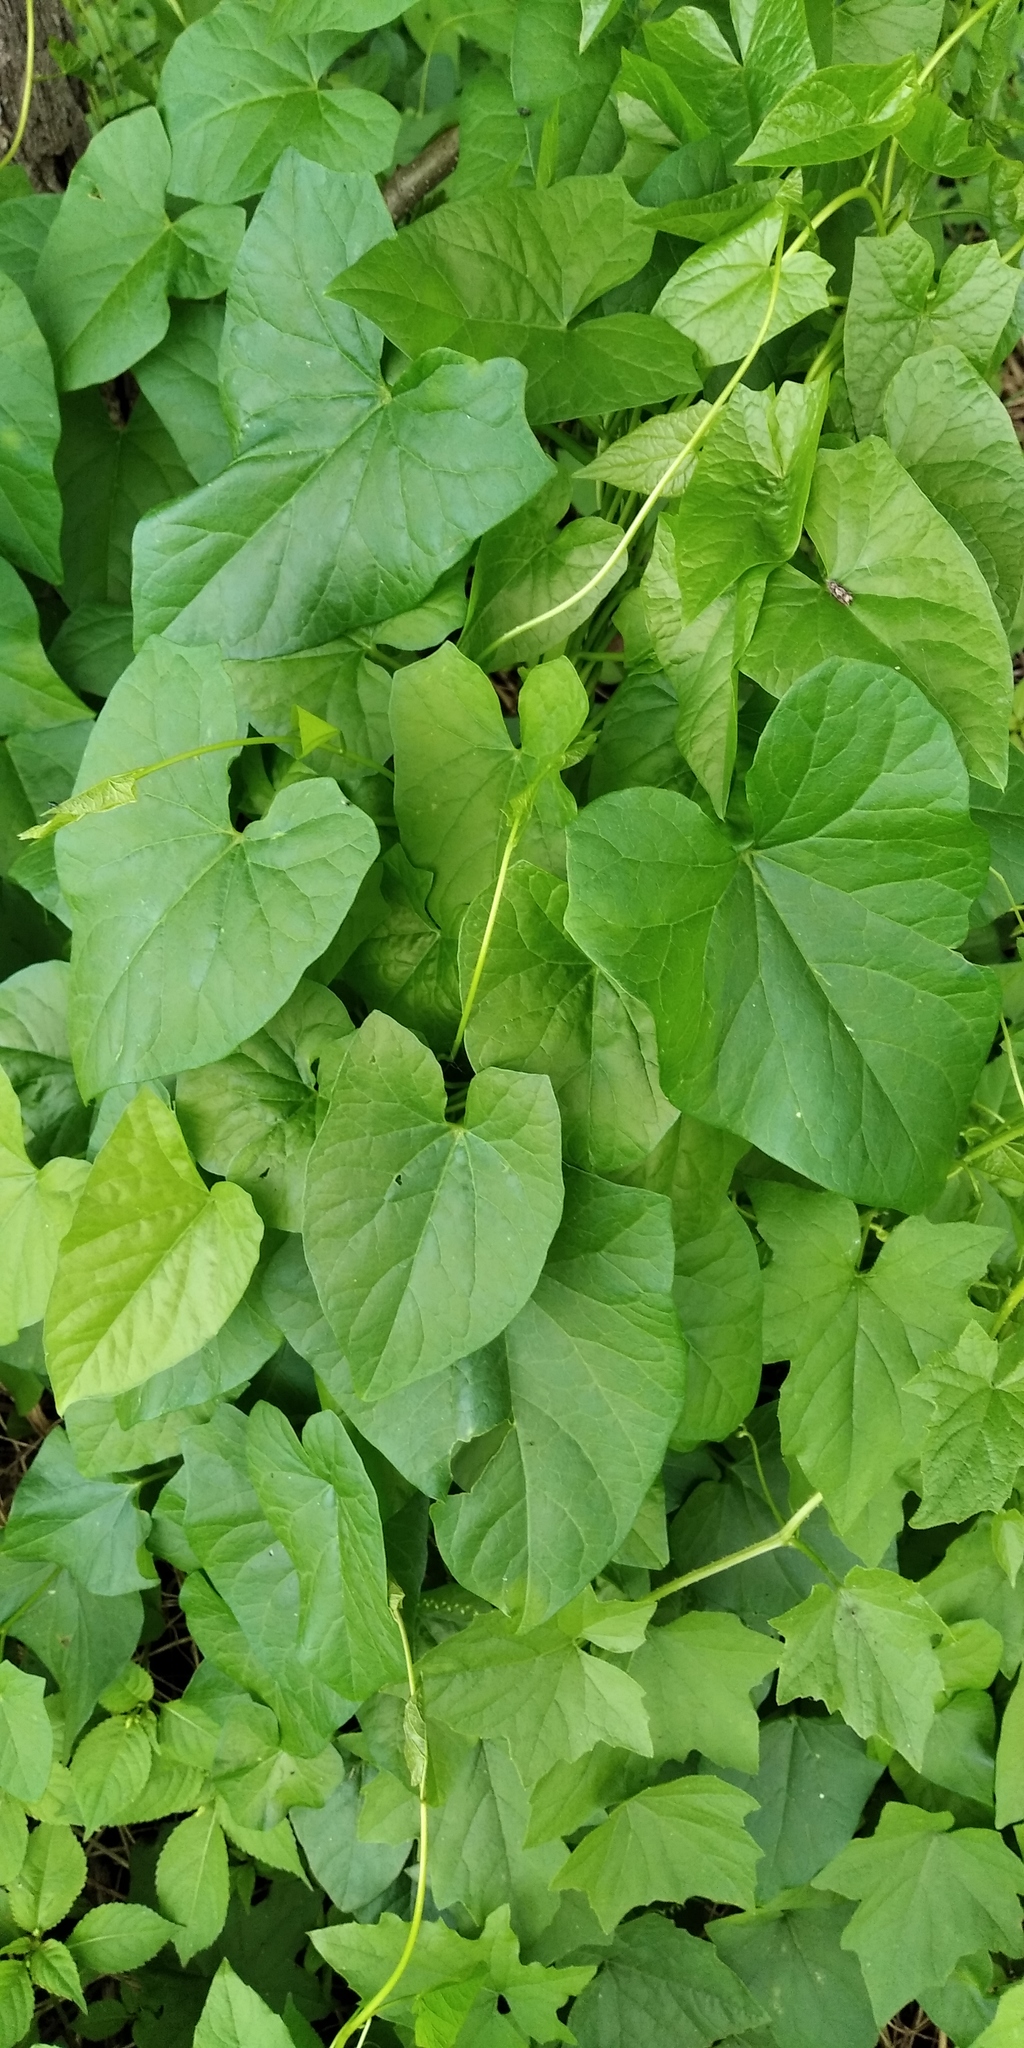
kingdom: Plantae
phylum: Tracheophyta
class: Magnoliopsida
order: Solanales
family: Convolvulaceae
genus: Calystegia
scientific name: Calystegia sepium
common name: Hedge bindweed
